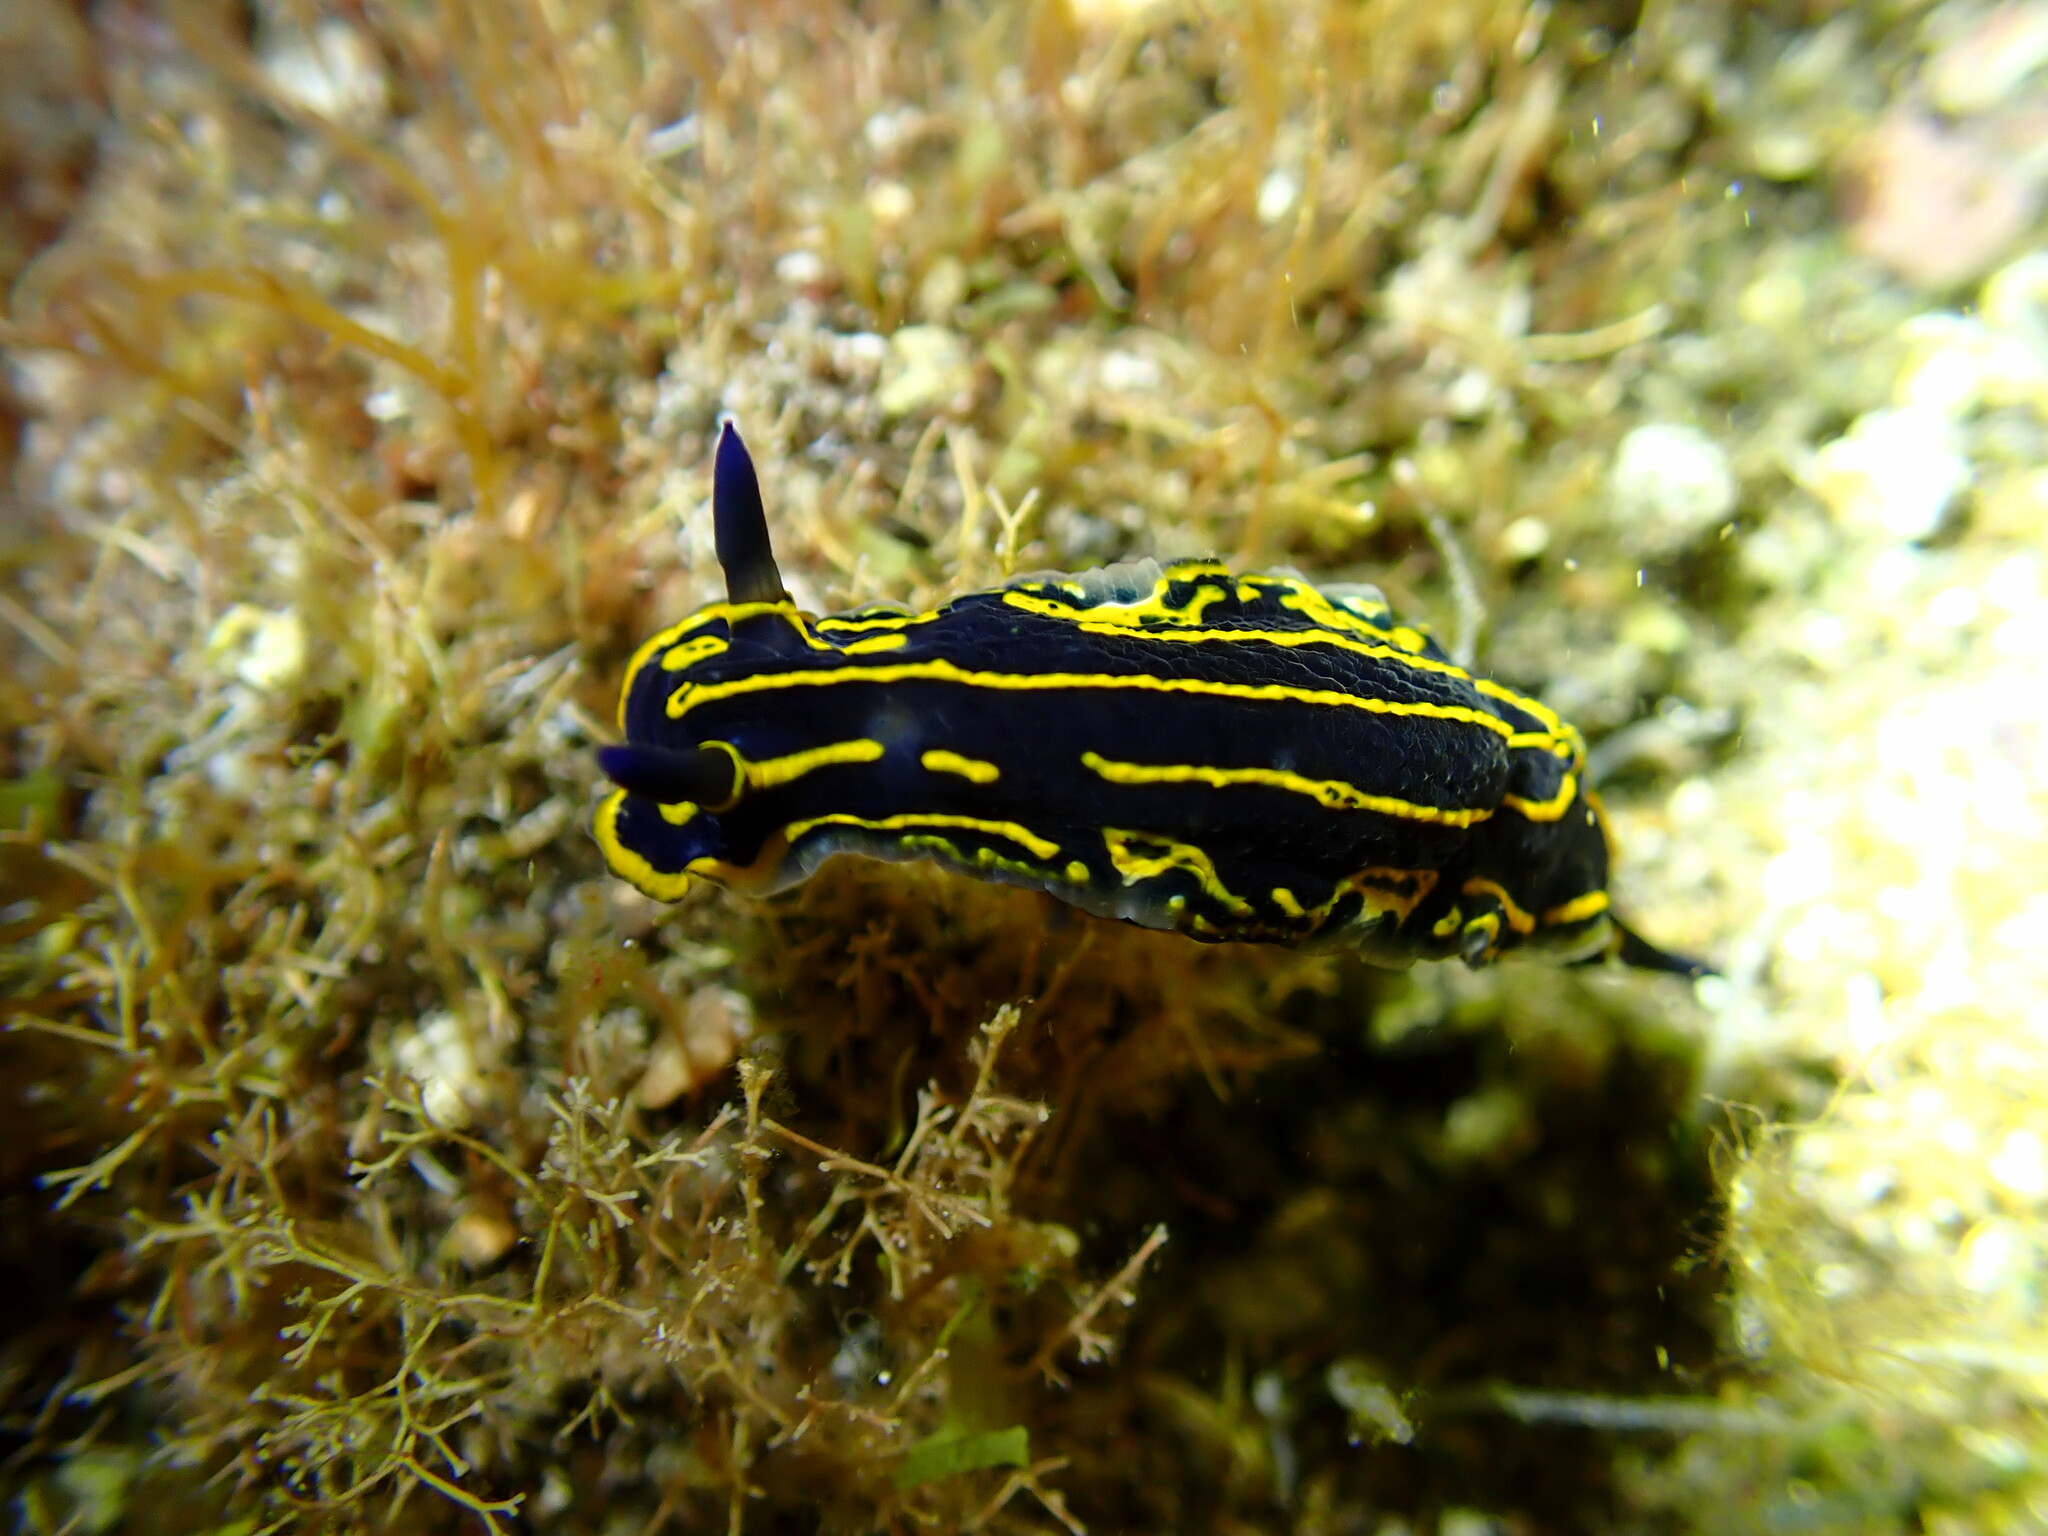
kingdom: Animalia
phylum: Mollusca
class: Gastropoda
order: Nudibranchia
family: Chromodorididae
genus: Felimare
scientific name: Felimare picta
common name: Giant doris
